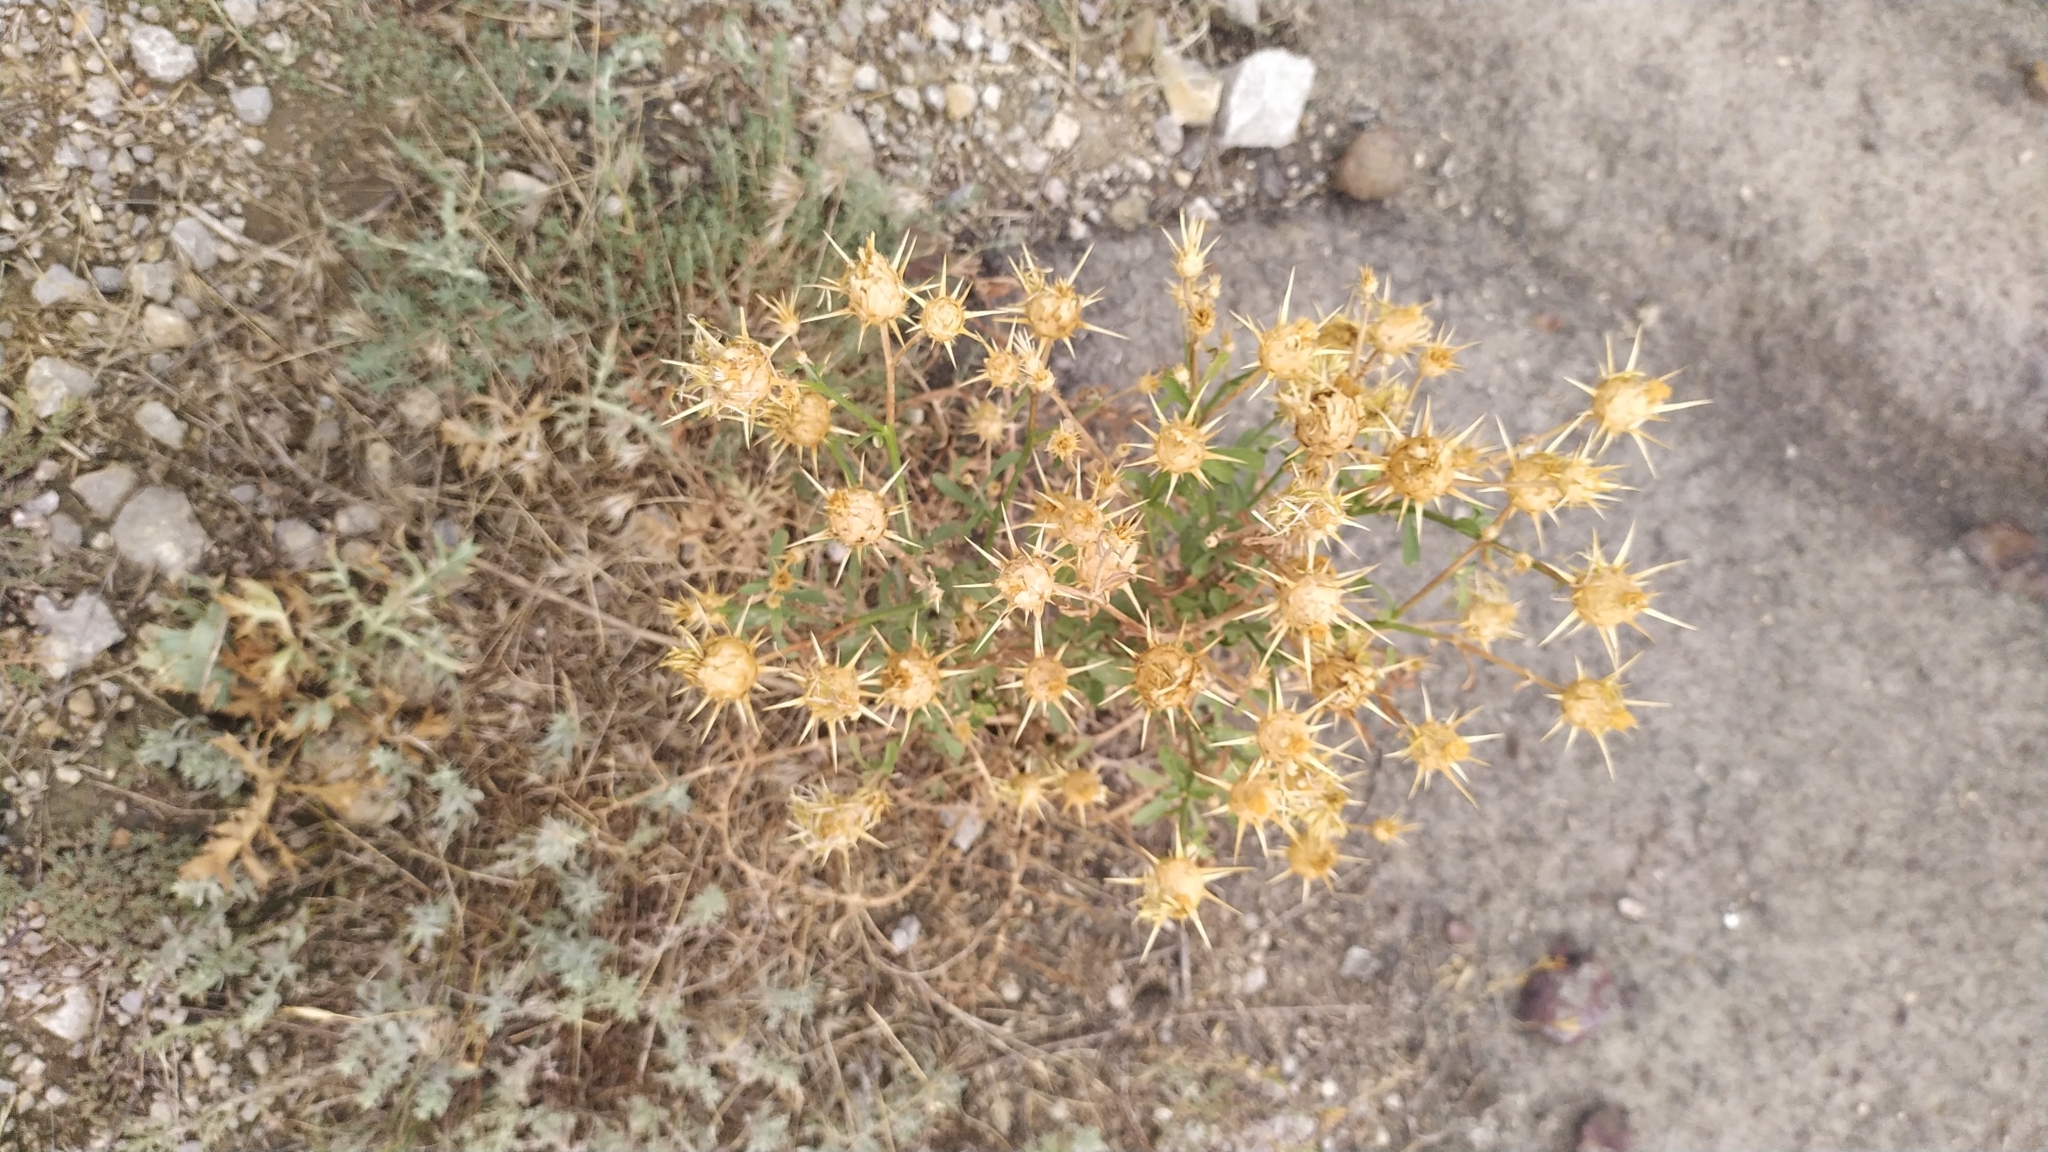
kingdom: Plantae
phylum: Tracheophyta
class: Magnoliopsida
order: Asterales
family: Asteraceae
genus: Centaurea
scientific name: Centaurea salonitana
